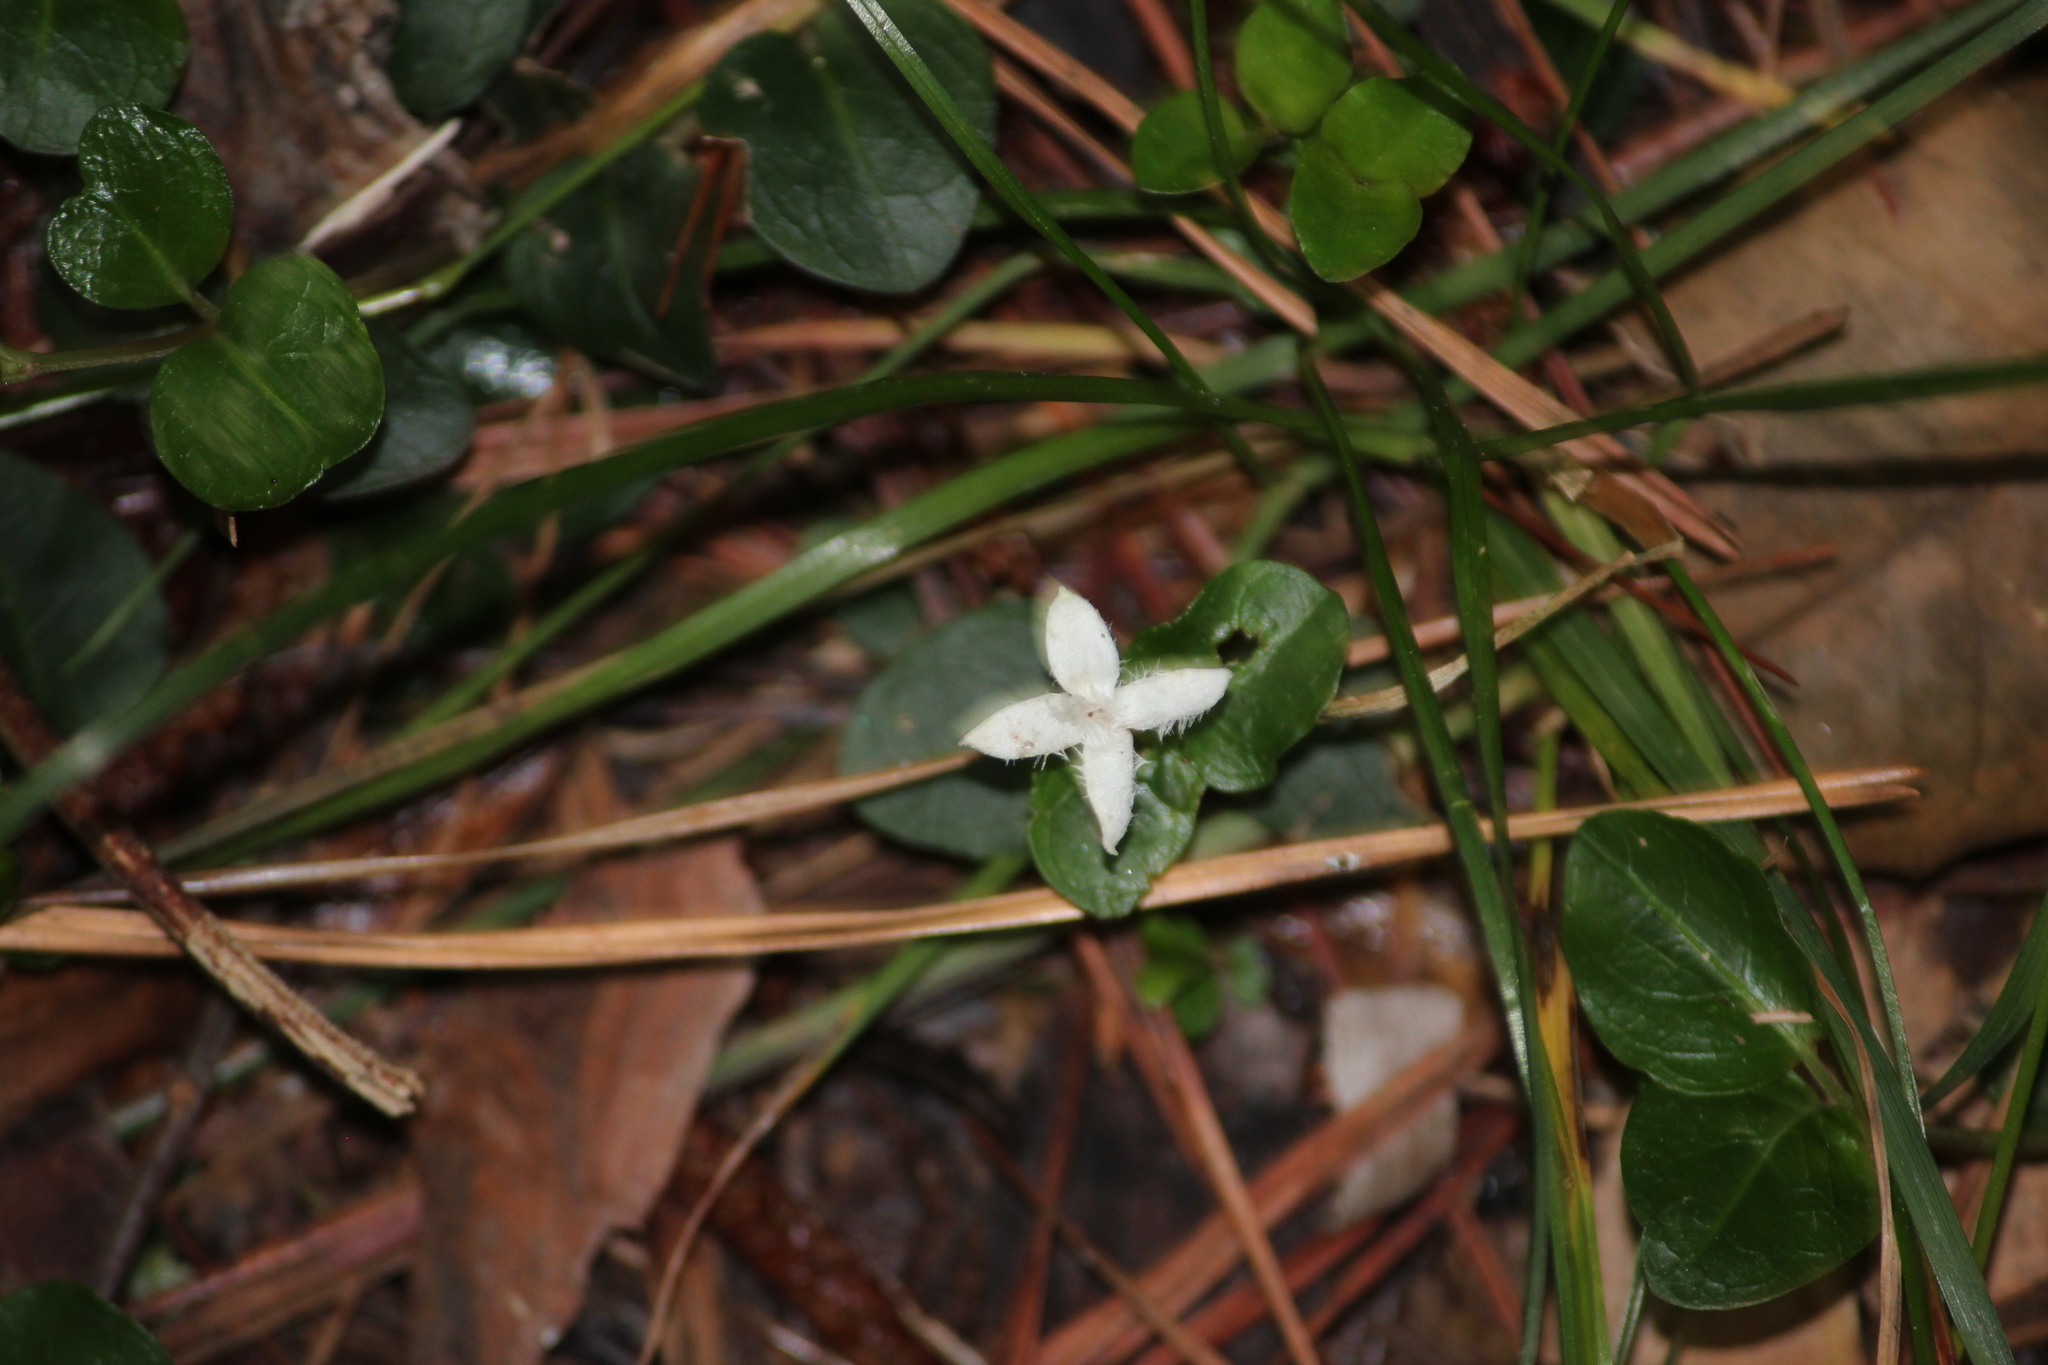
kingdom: Plantae
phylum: Tracheophyta
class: Magnoliopsida
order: Gentianales
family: Rubiaceae
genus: Mitchella
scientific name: Mitchella repens
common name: Partridge-berry
